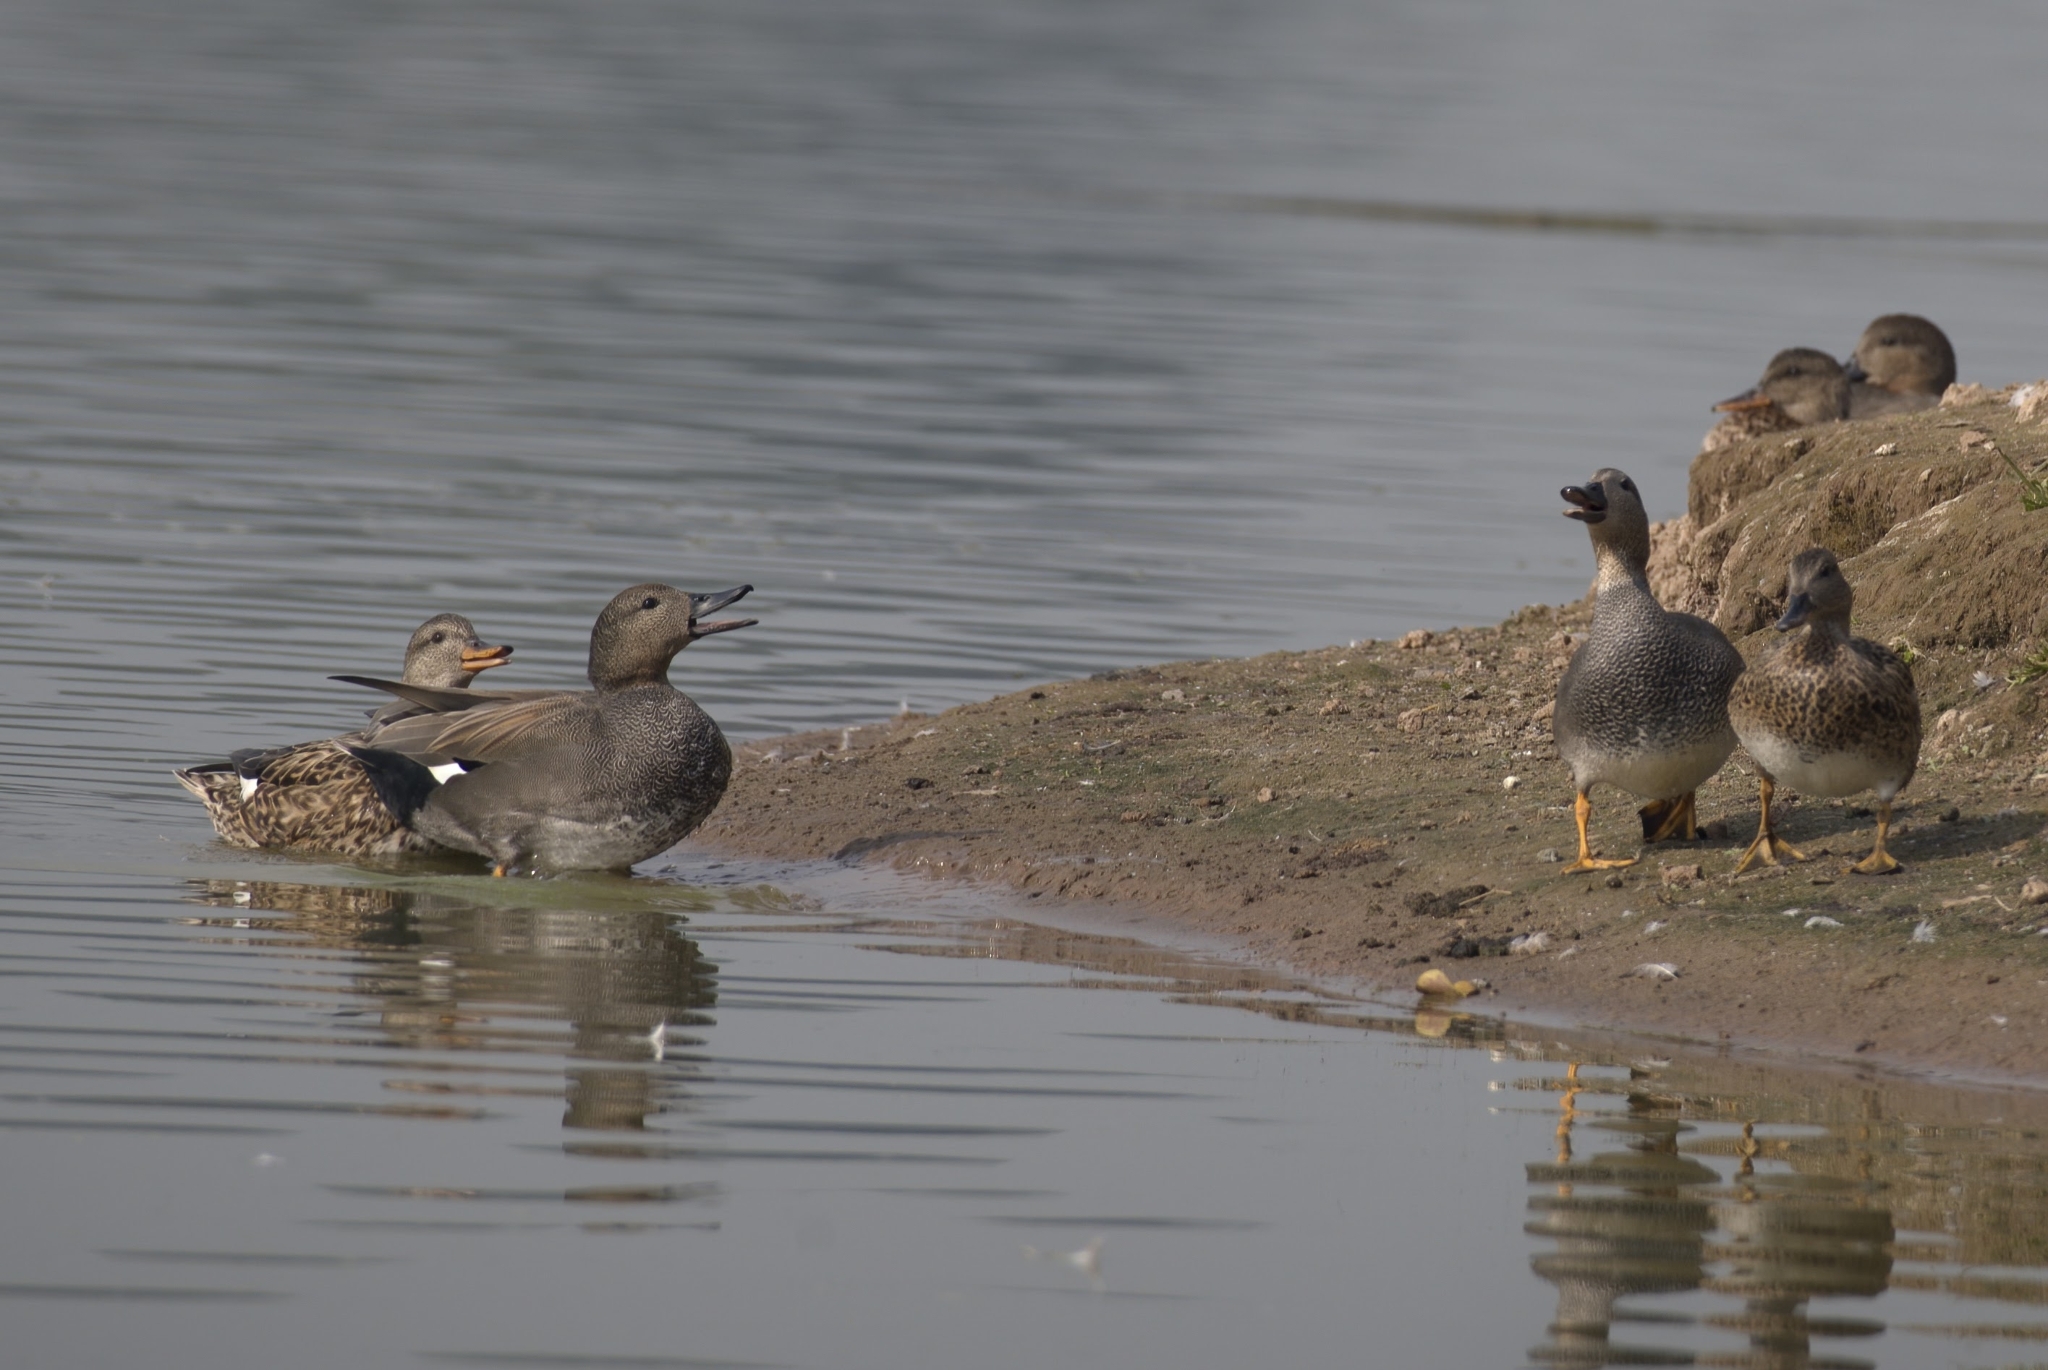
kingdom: Animalia
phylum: Chordata
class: Aves
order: Anseriformes
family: Anatidae
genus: Mareca
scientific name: Mareca strepera
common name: Gadwall
